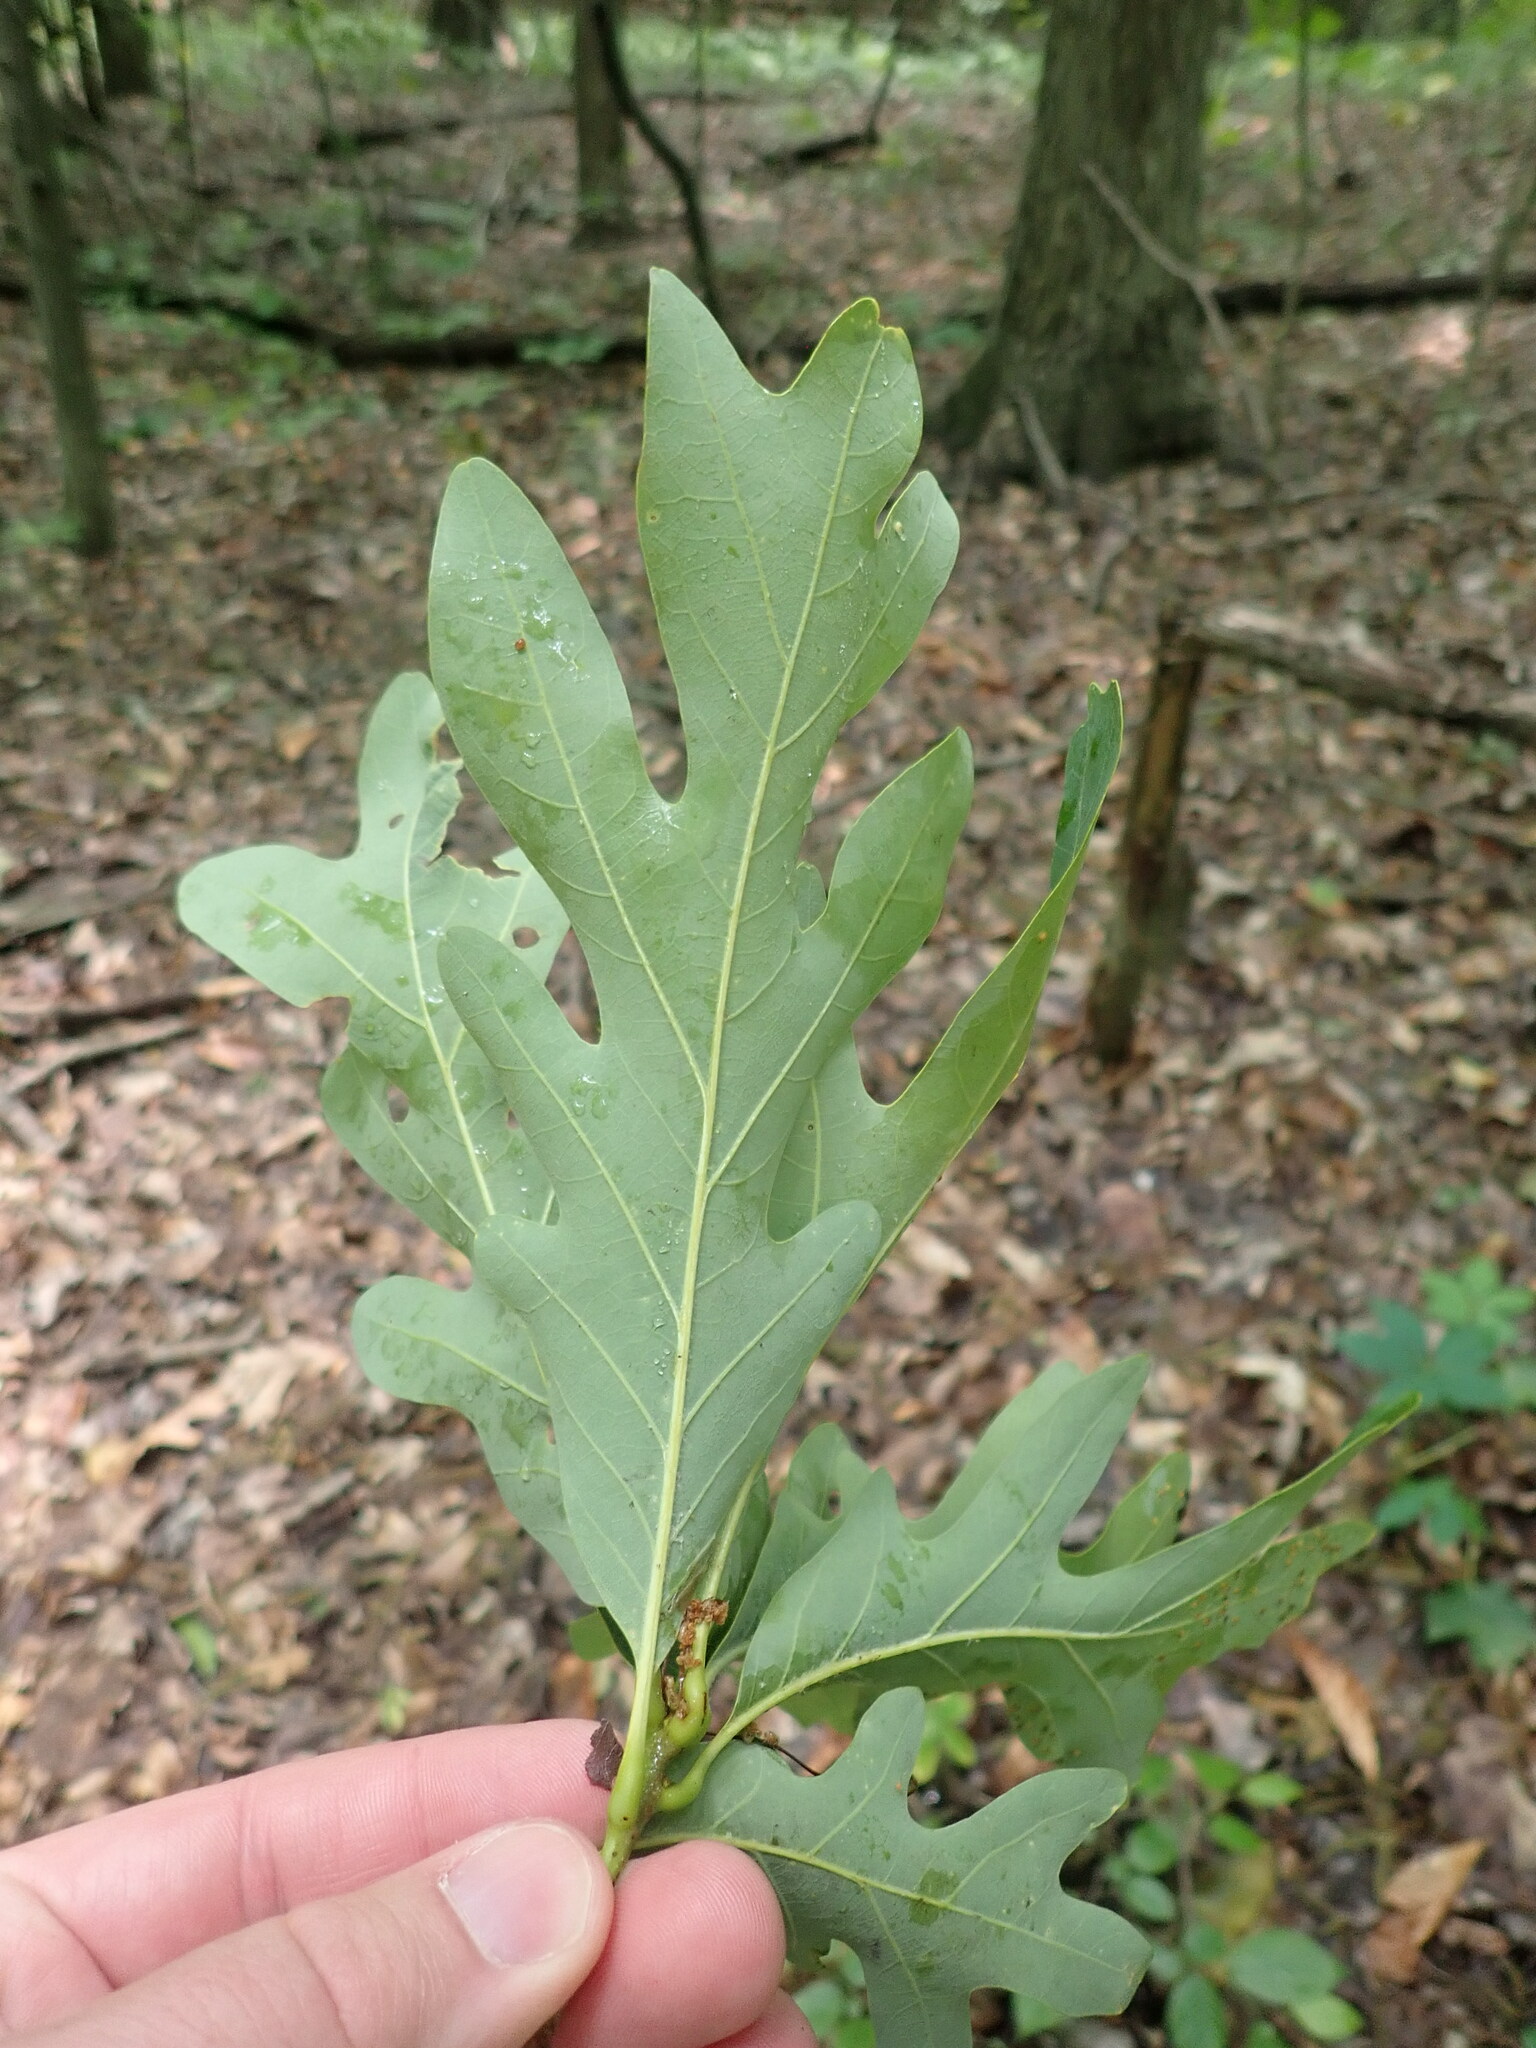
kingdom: Plantae
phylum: Tracheophyta
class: Magnoliopsida
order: Fagales
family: Fagaceae
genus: Quercus
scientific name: Quercus alba
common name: White oak
